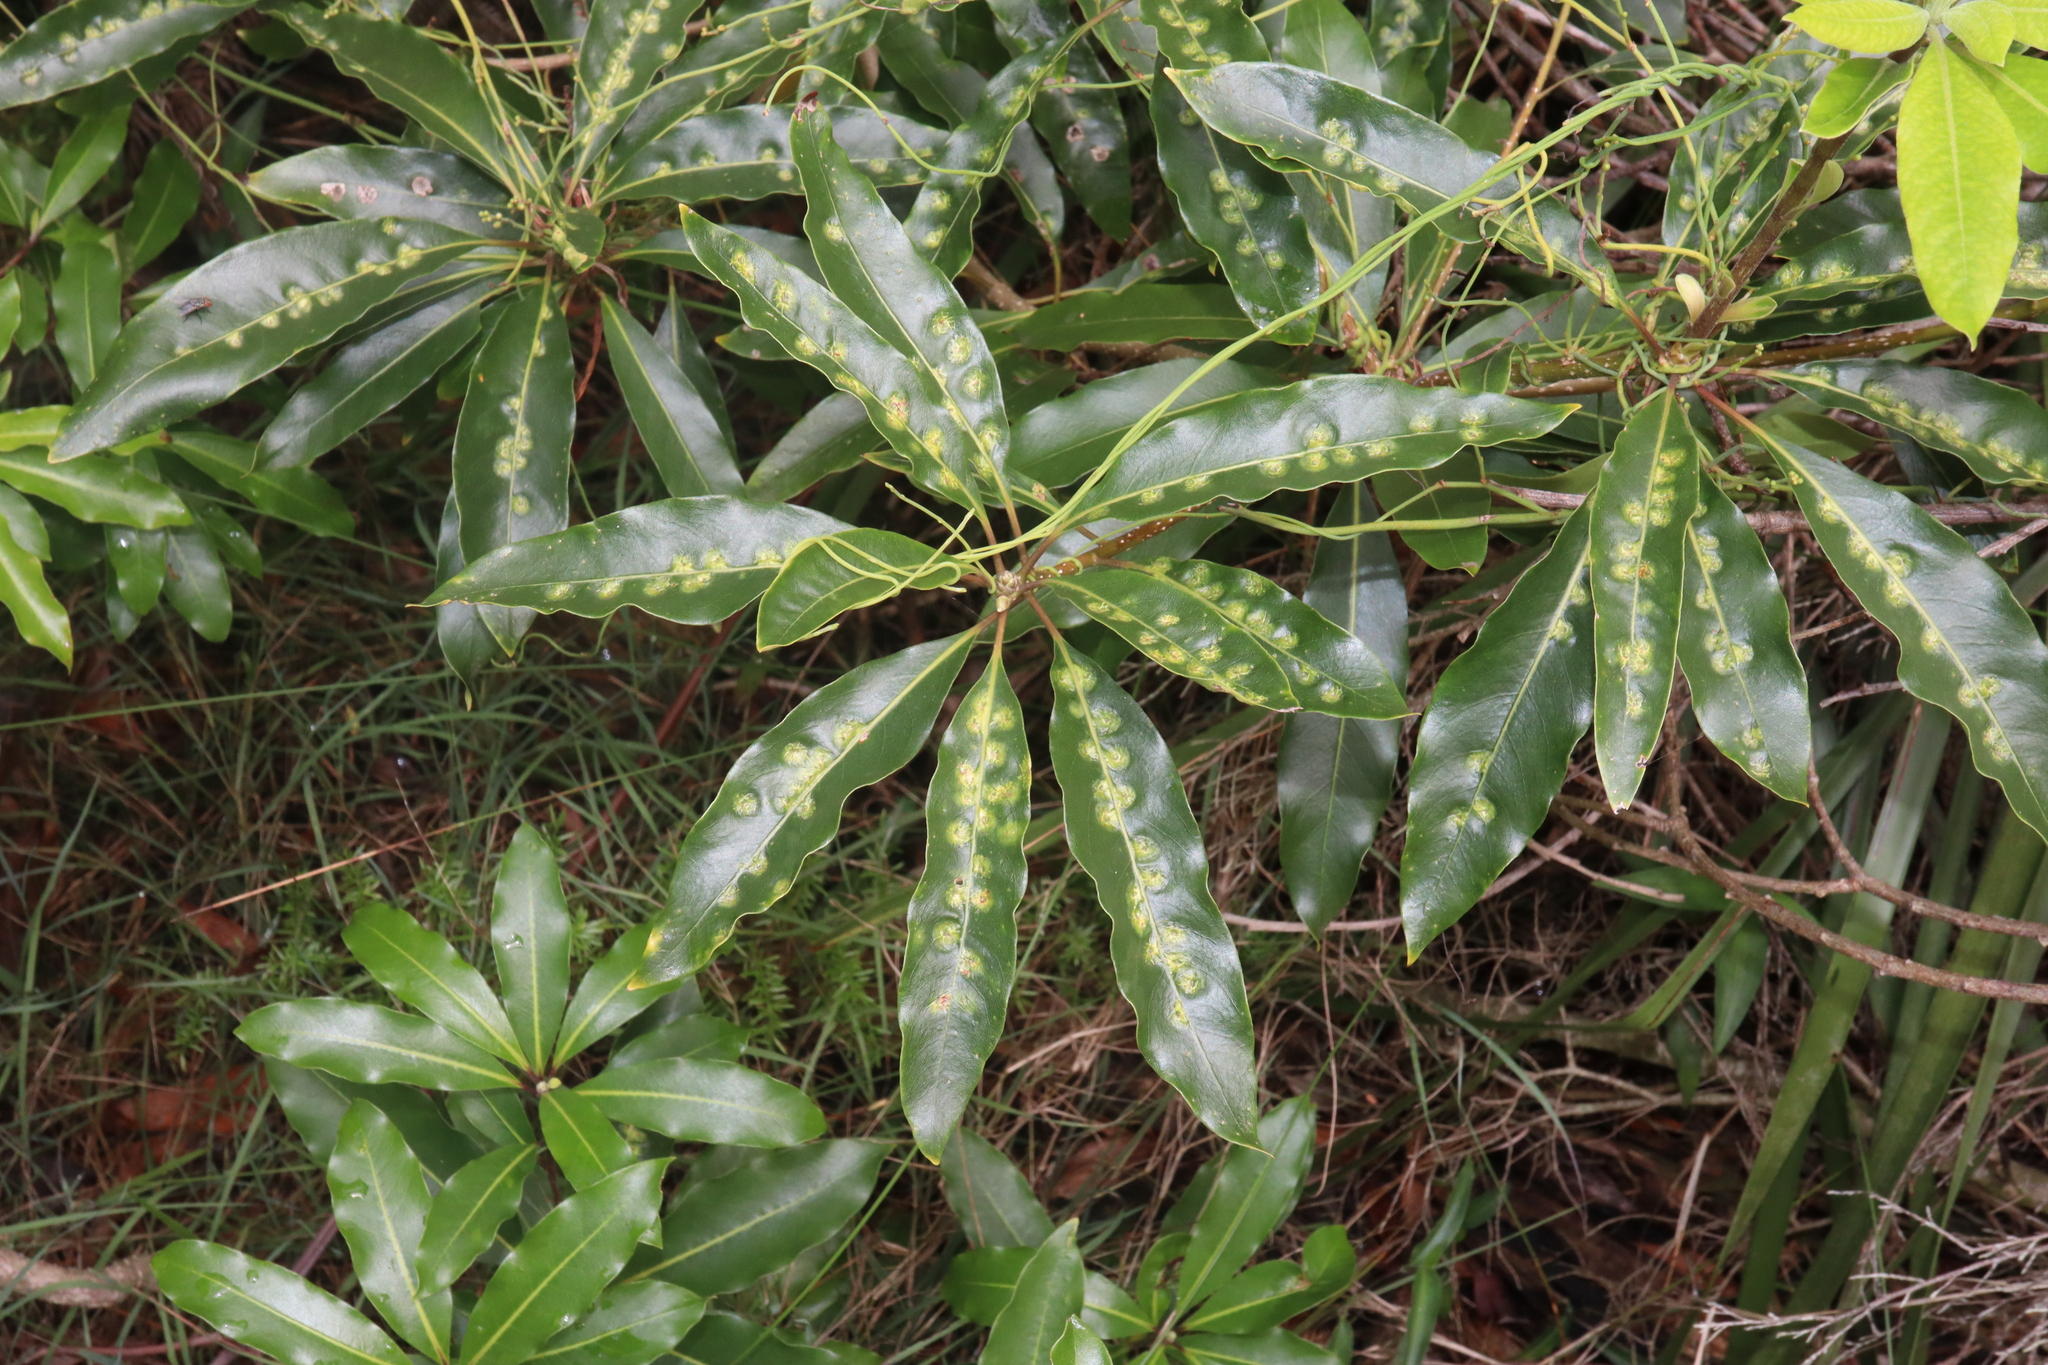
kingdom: Animalia
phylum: Arthropoda
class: Insecta
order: Diptera
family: Agromyzidae
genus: Phytoliriomyza
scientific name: Phytoliriomyza pittosporophylli
